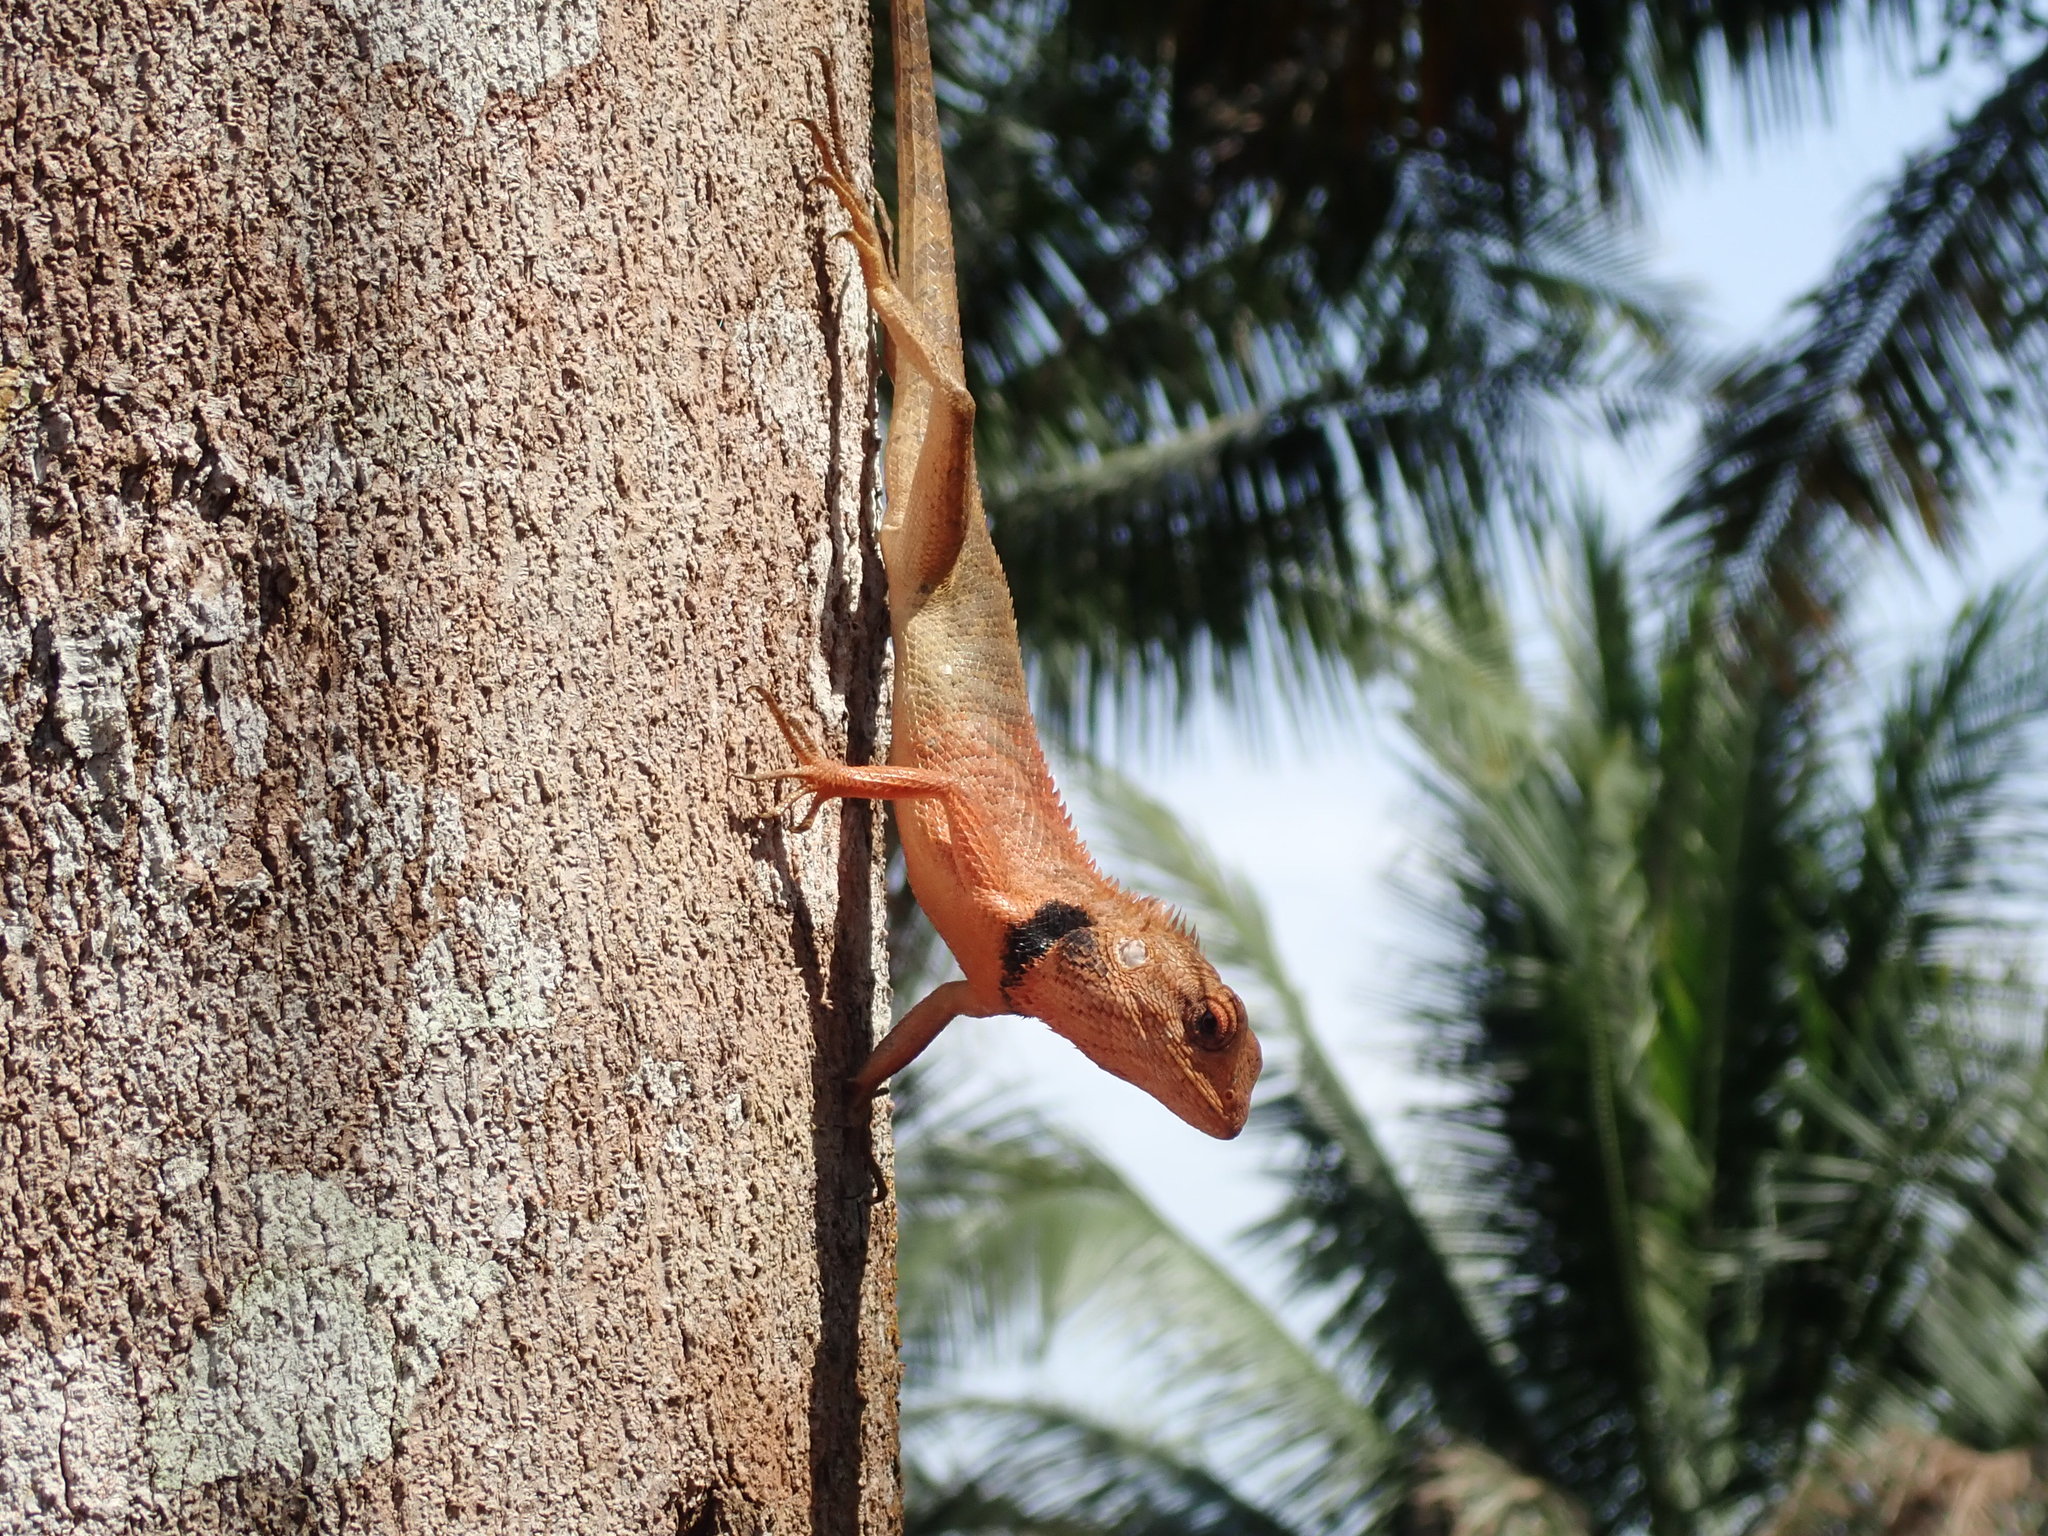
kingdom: Animalia
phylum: Chordata
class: Squamata
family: Agamidae
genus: Calotes
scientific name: Calotes versicolor
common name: Oriental garden lizard
